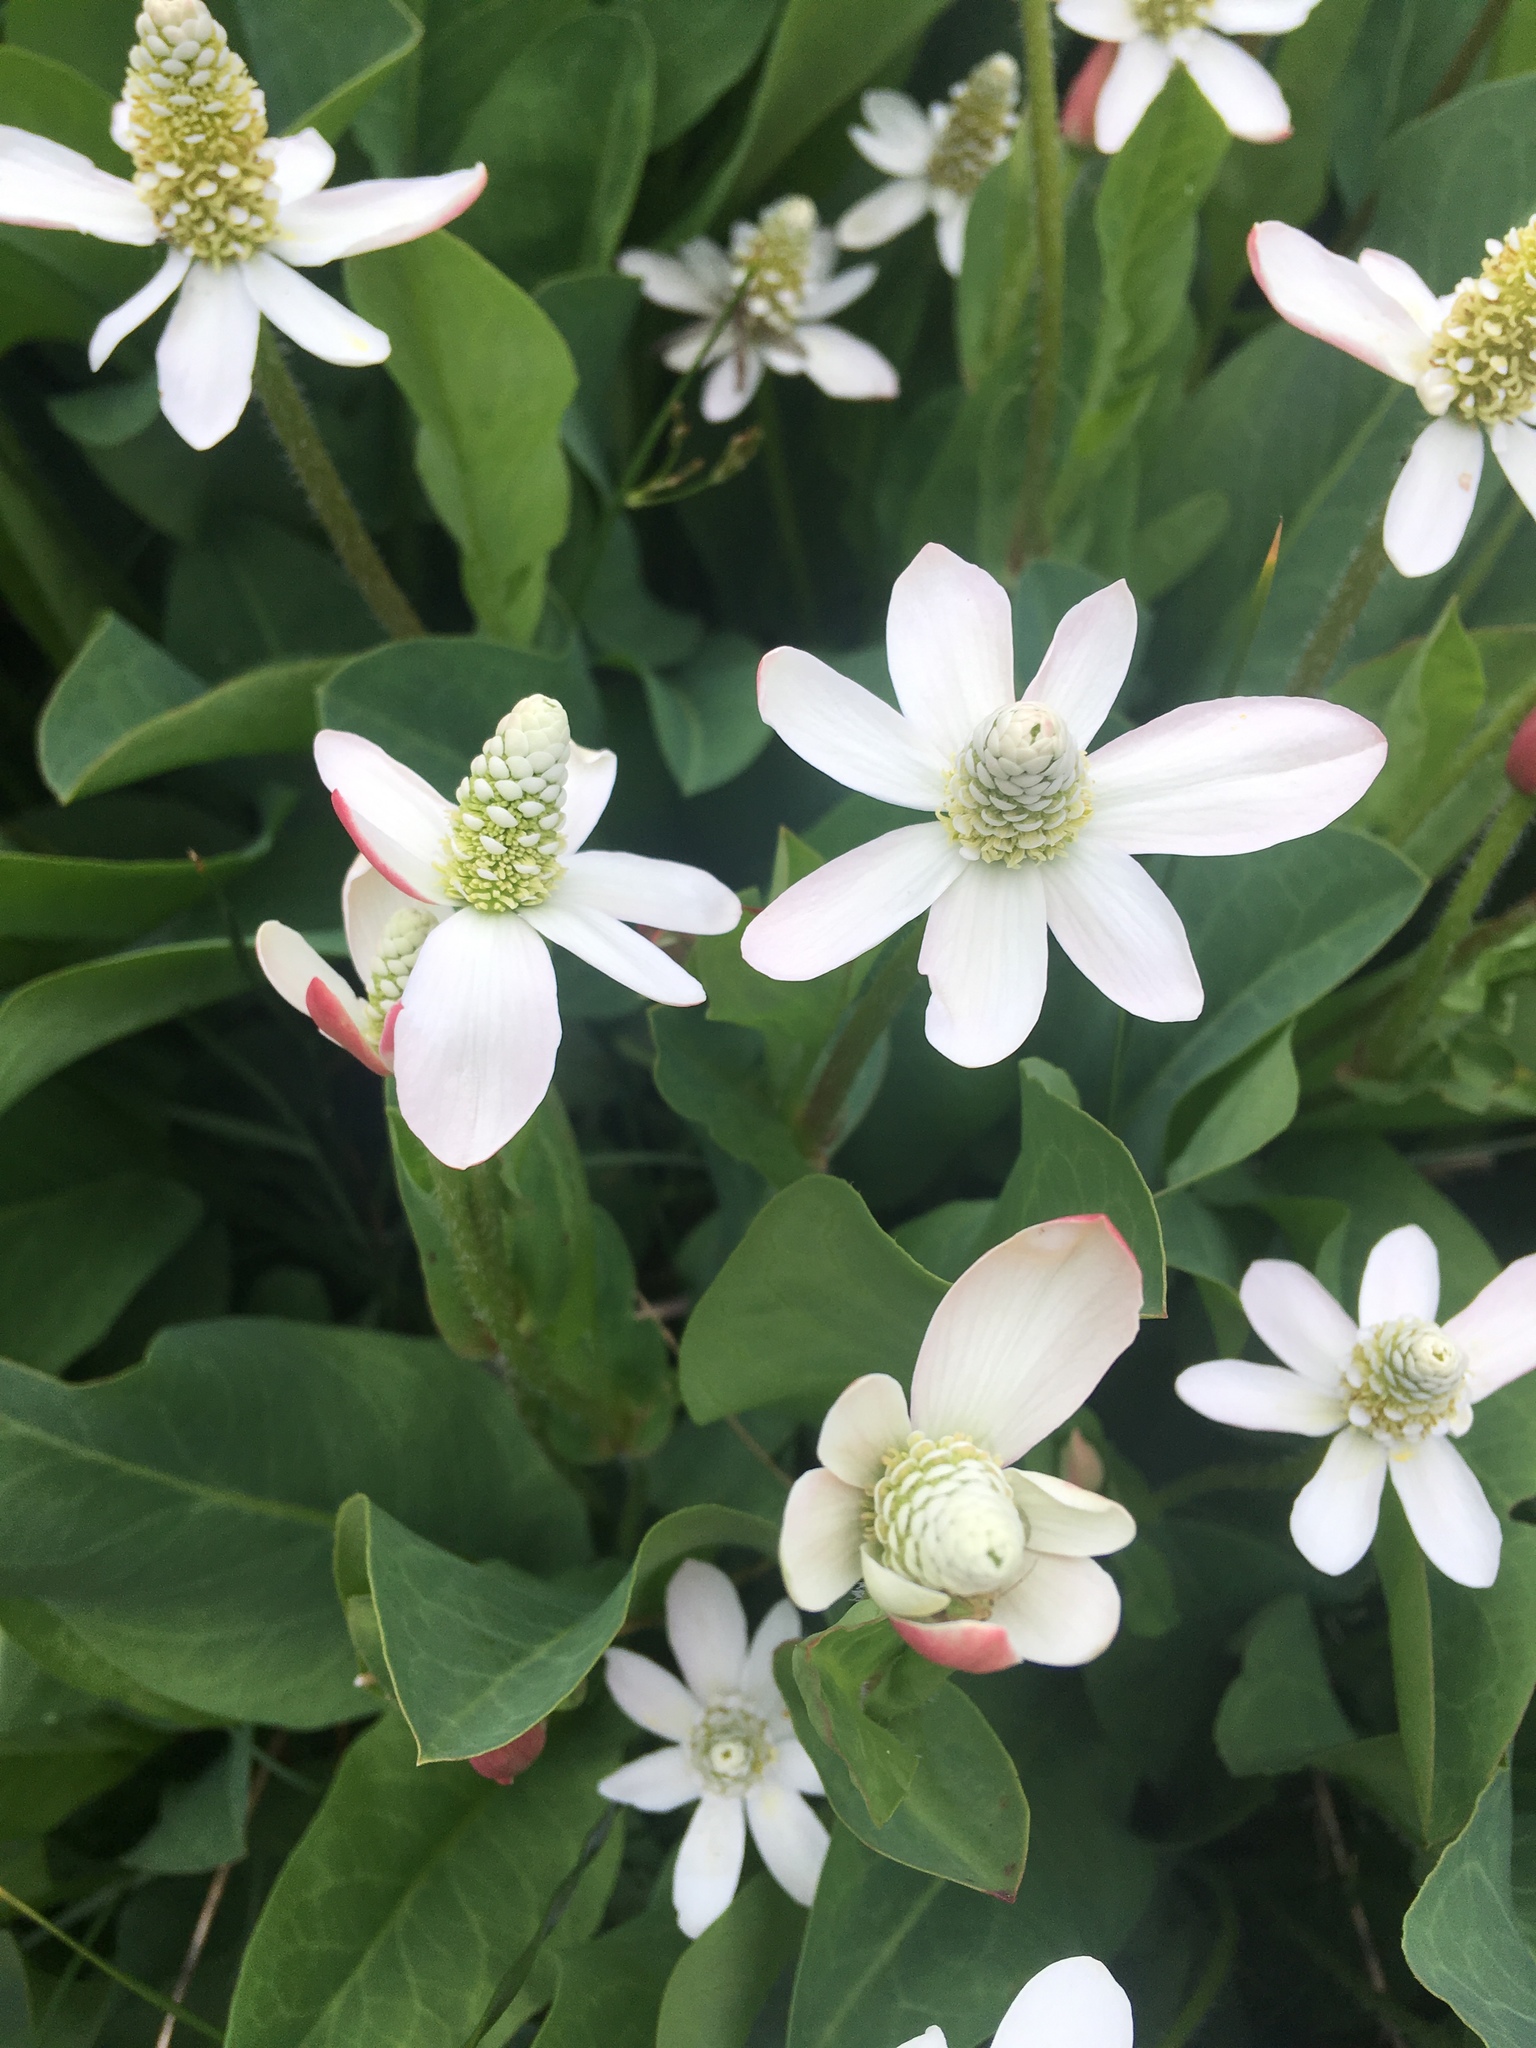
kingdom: Plantae
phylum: Tracheophyta
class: Magnoliopsida
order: Piperales
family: Saururaceae
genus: Anemopsis
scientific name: Anemopsis californica
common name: Apache-beads
